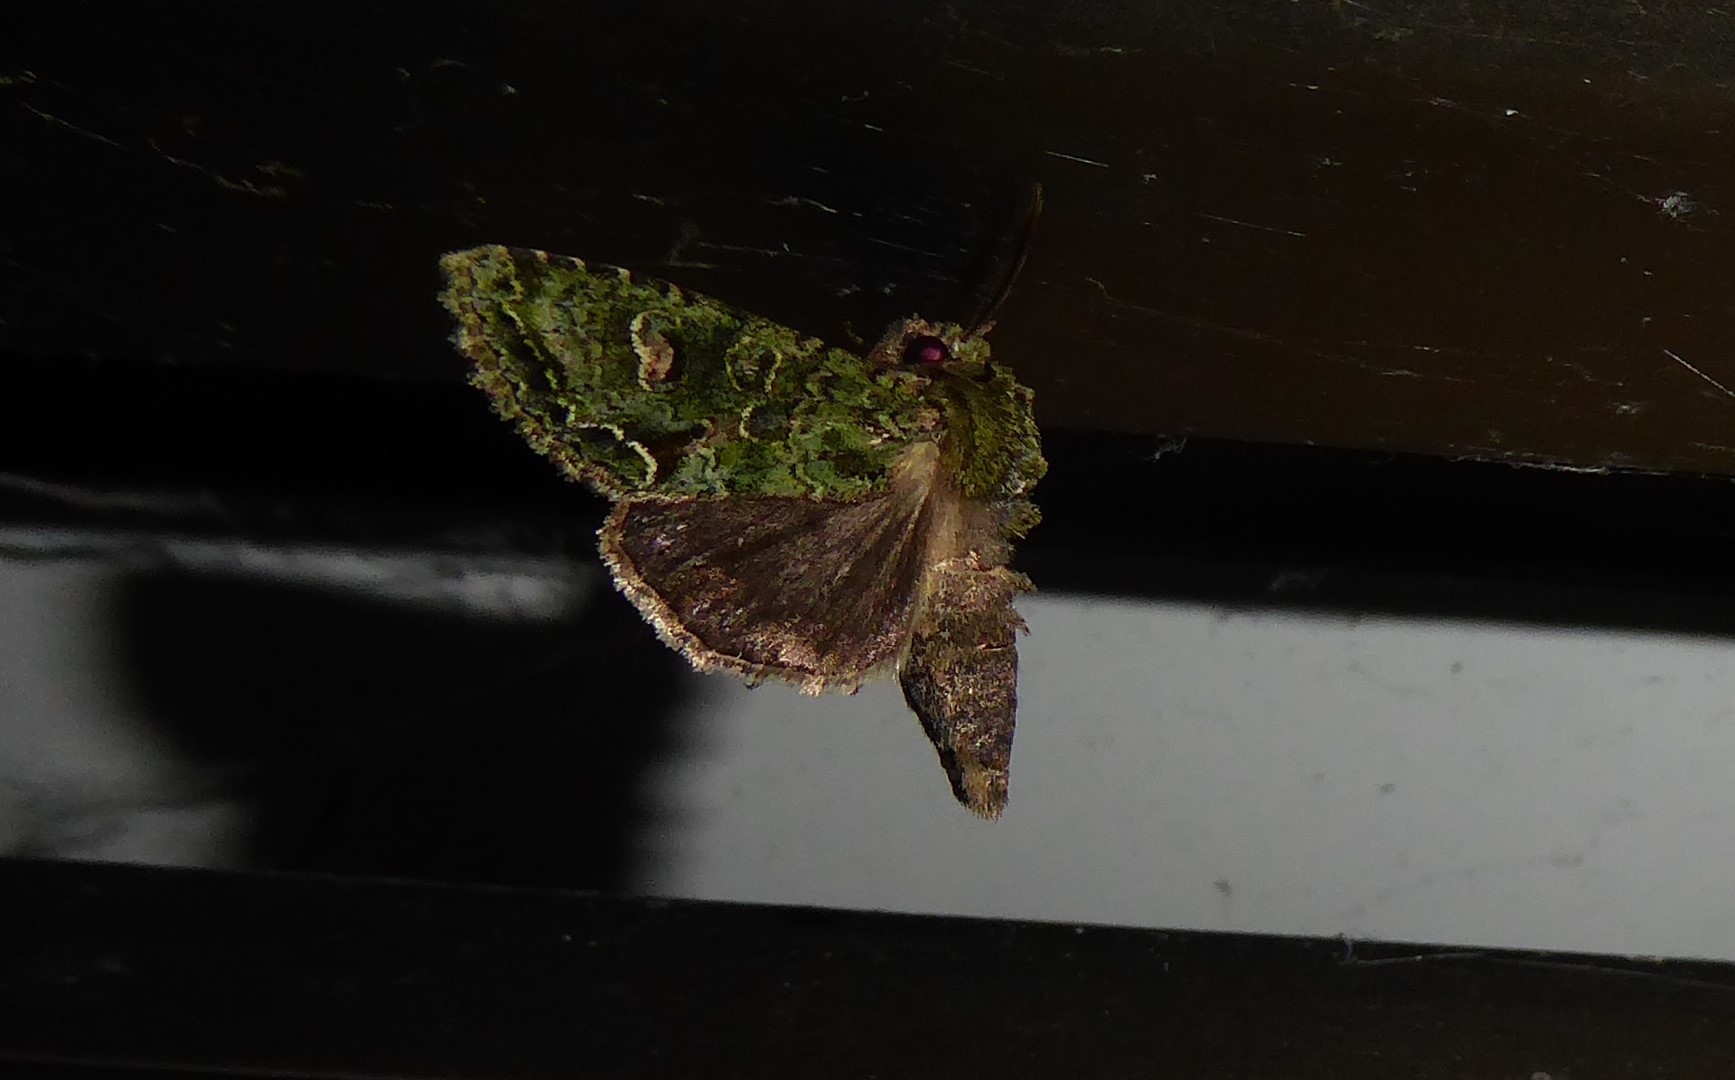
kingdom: Animalia
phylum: Arthropoda
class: Insecta
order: Lepidoptera
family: Noctuidae
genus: Ichneutica
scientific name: Ichneutica
